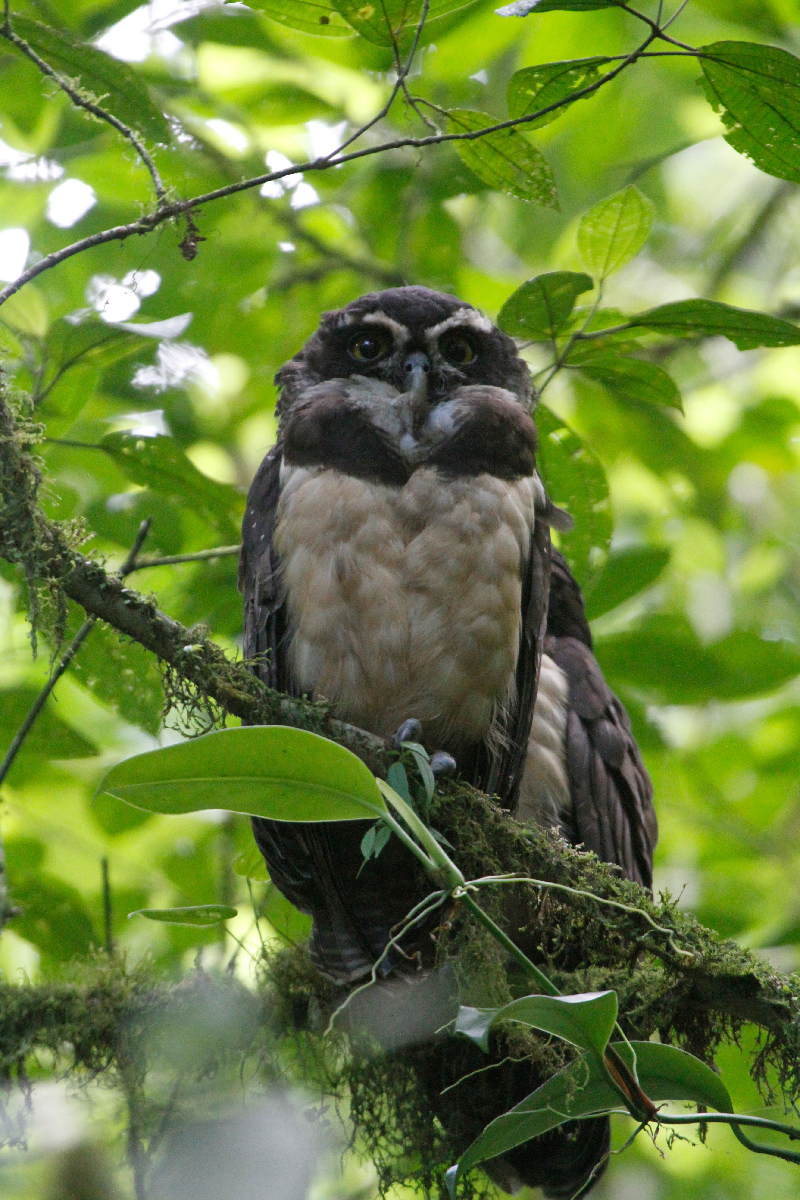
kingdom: Animalia
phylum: Chordata
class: Aves
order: Strigiformes
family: Strigidae
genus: Pulsatrix
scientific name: Pulsatrix perspicillata
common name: Spectacled owl
